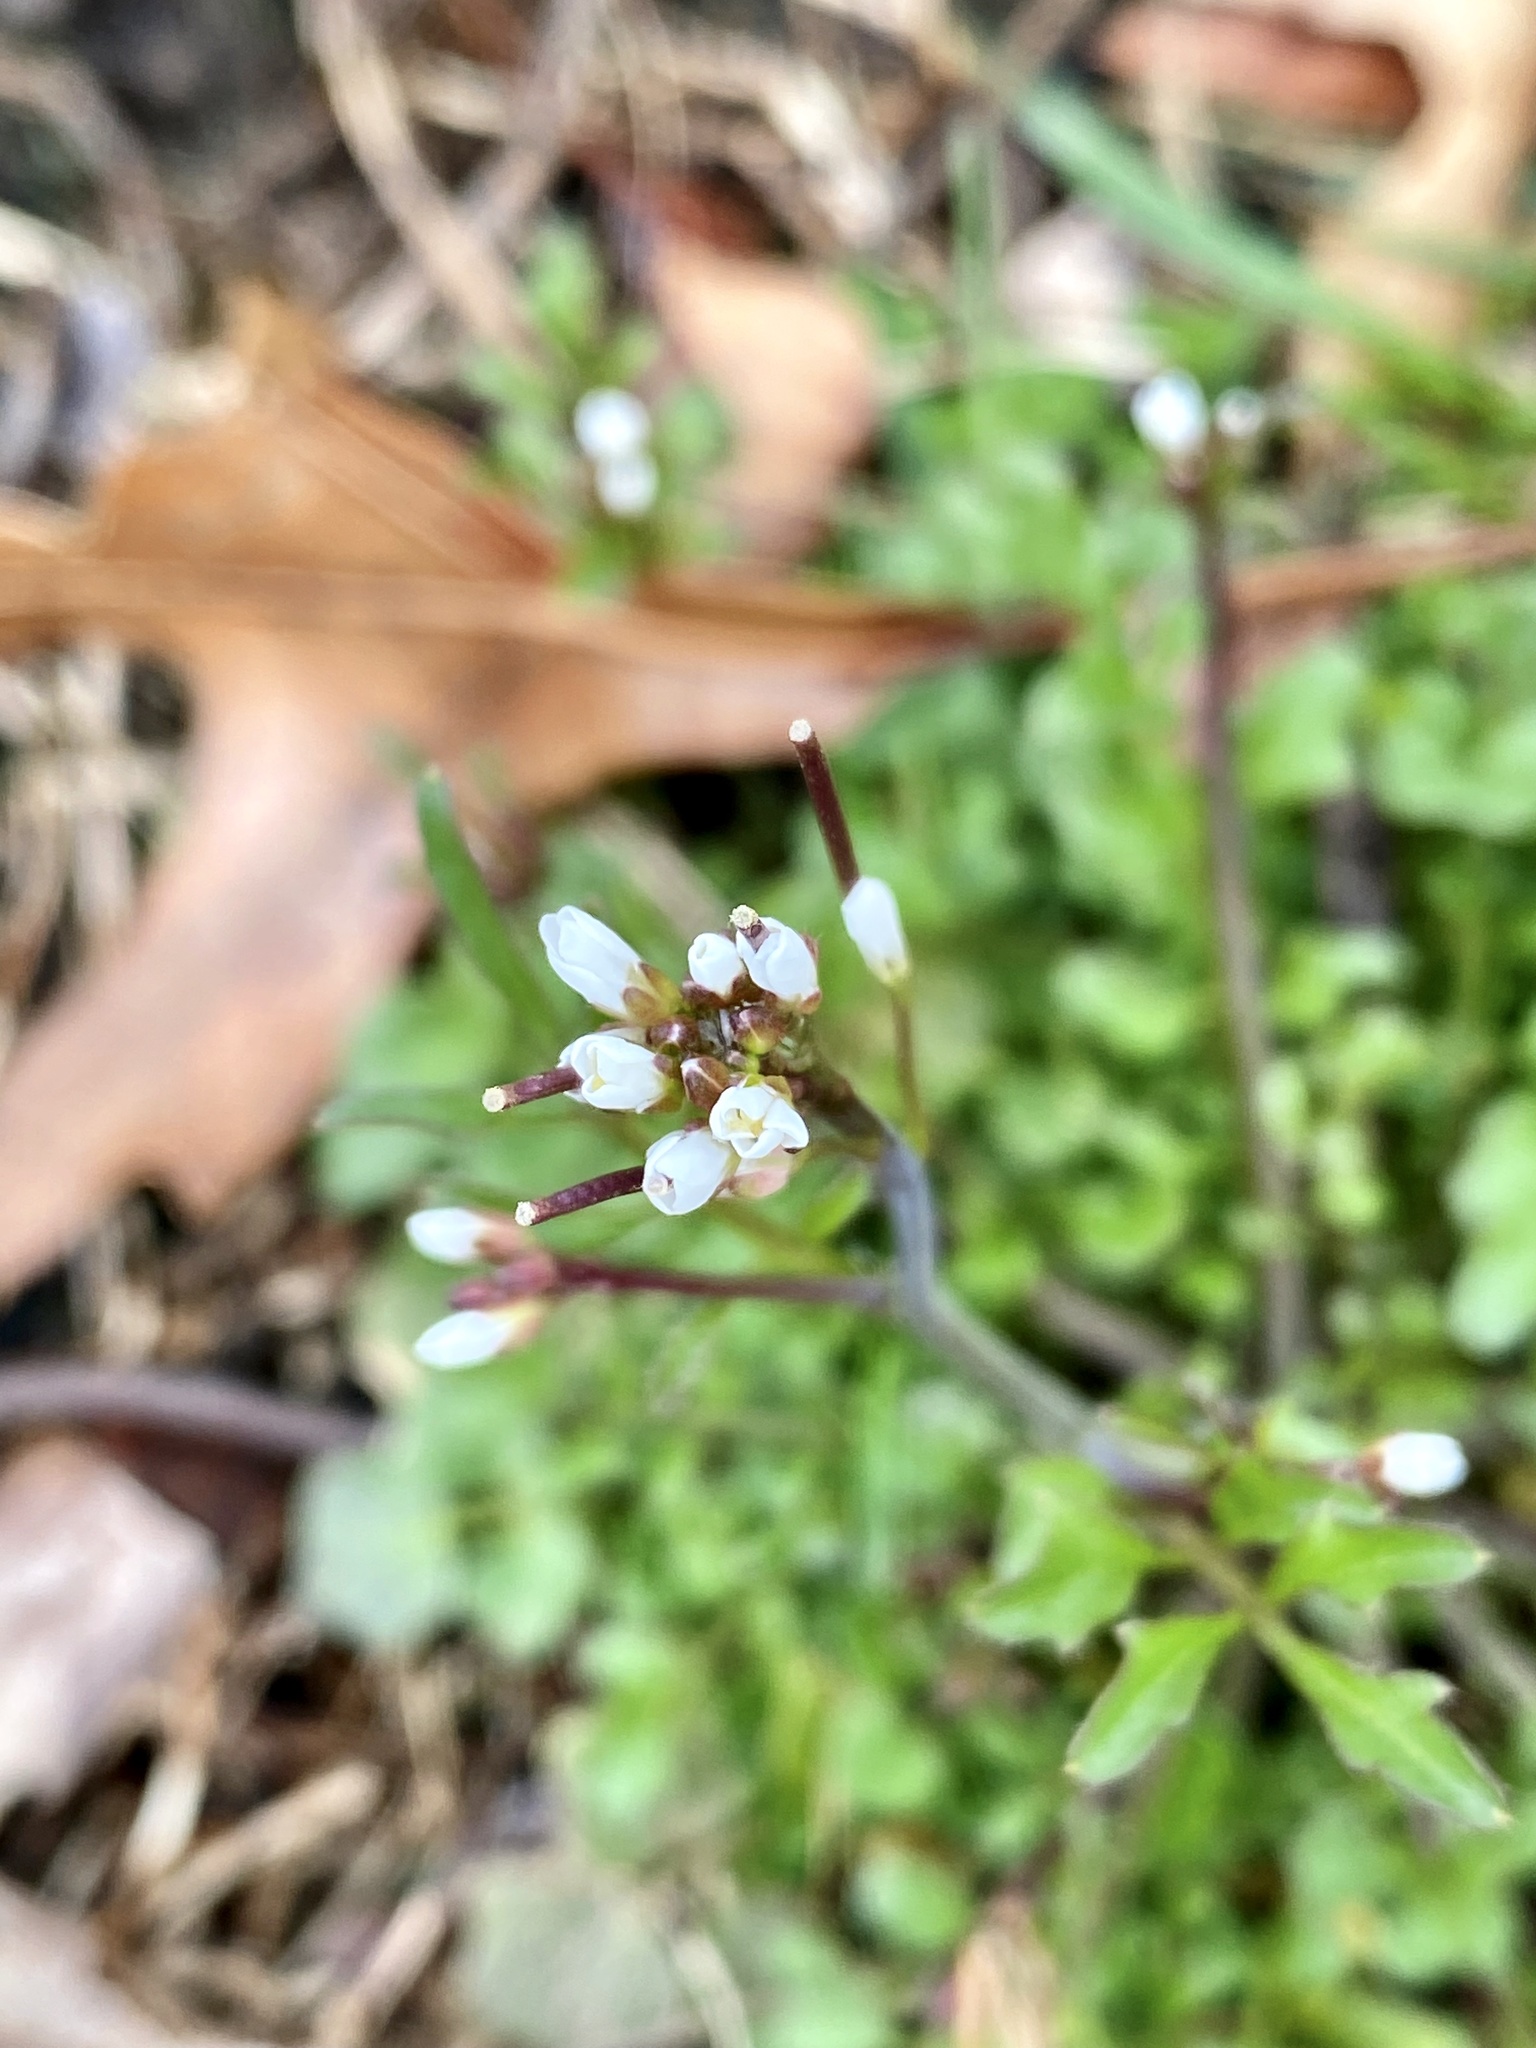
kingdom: Plantae
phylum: Tracheophyta
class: Magnoliopsida
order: Brassicales
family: Brassicaceae
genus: Cardamine
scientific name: Cardamine hirsuta
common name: Hairy bittercress
